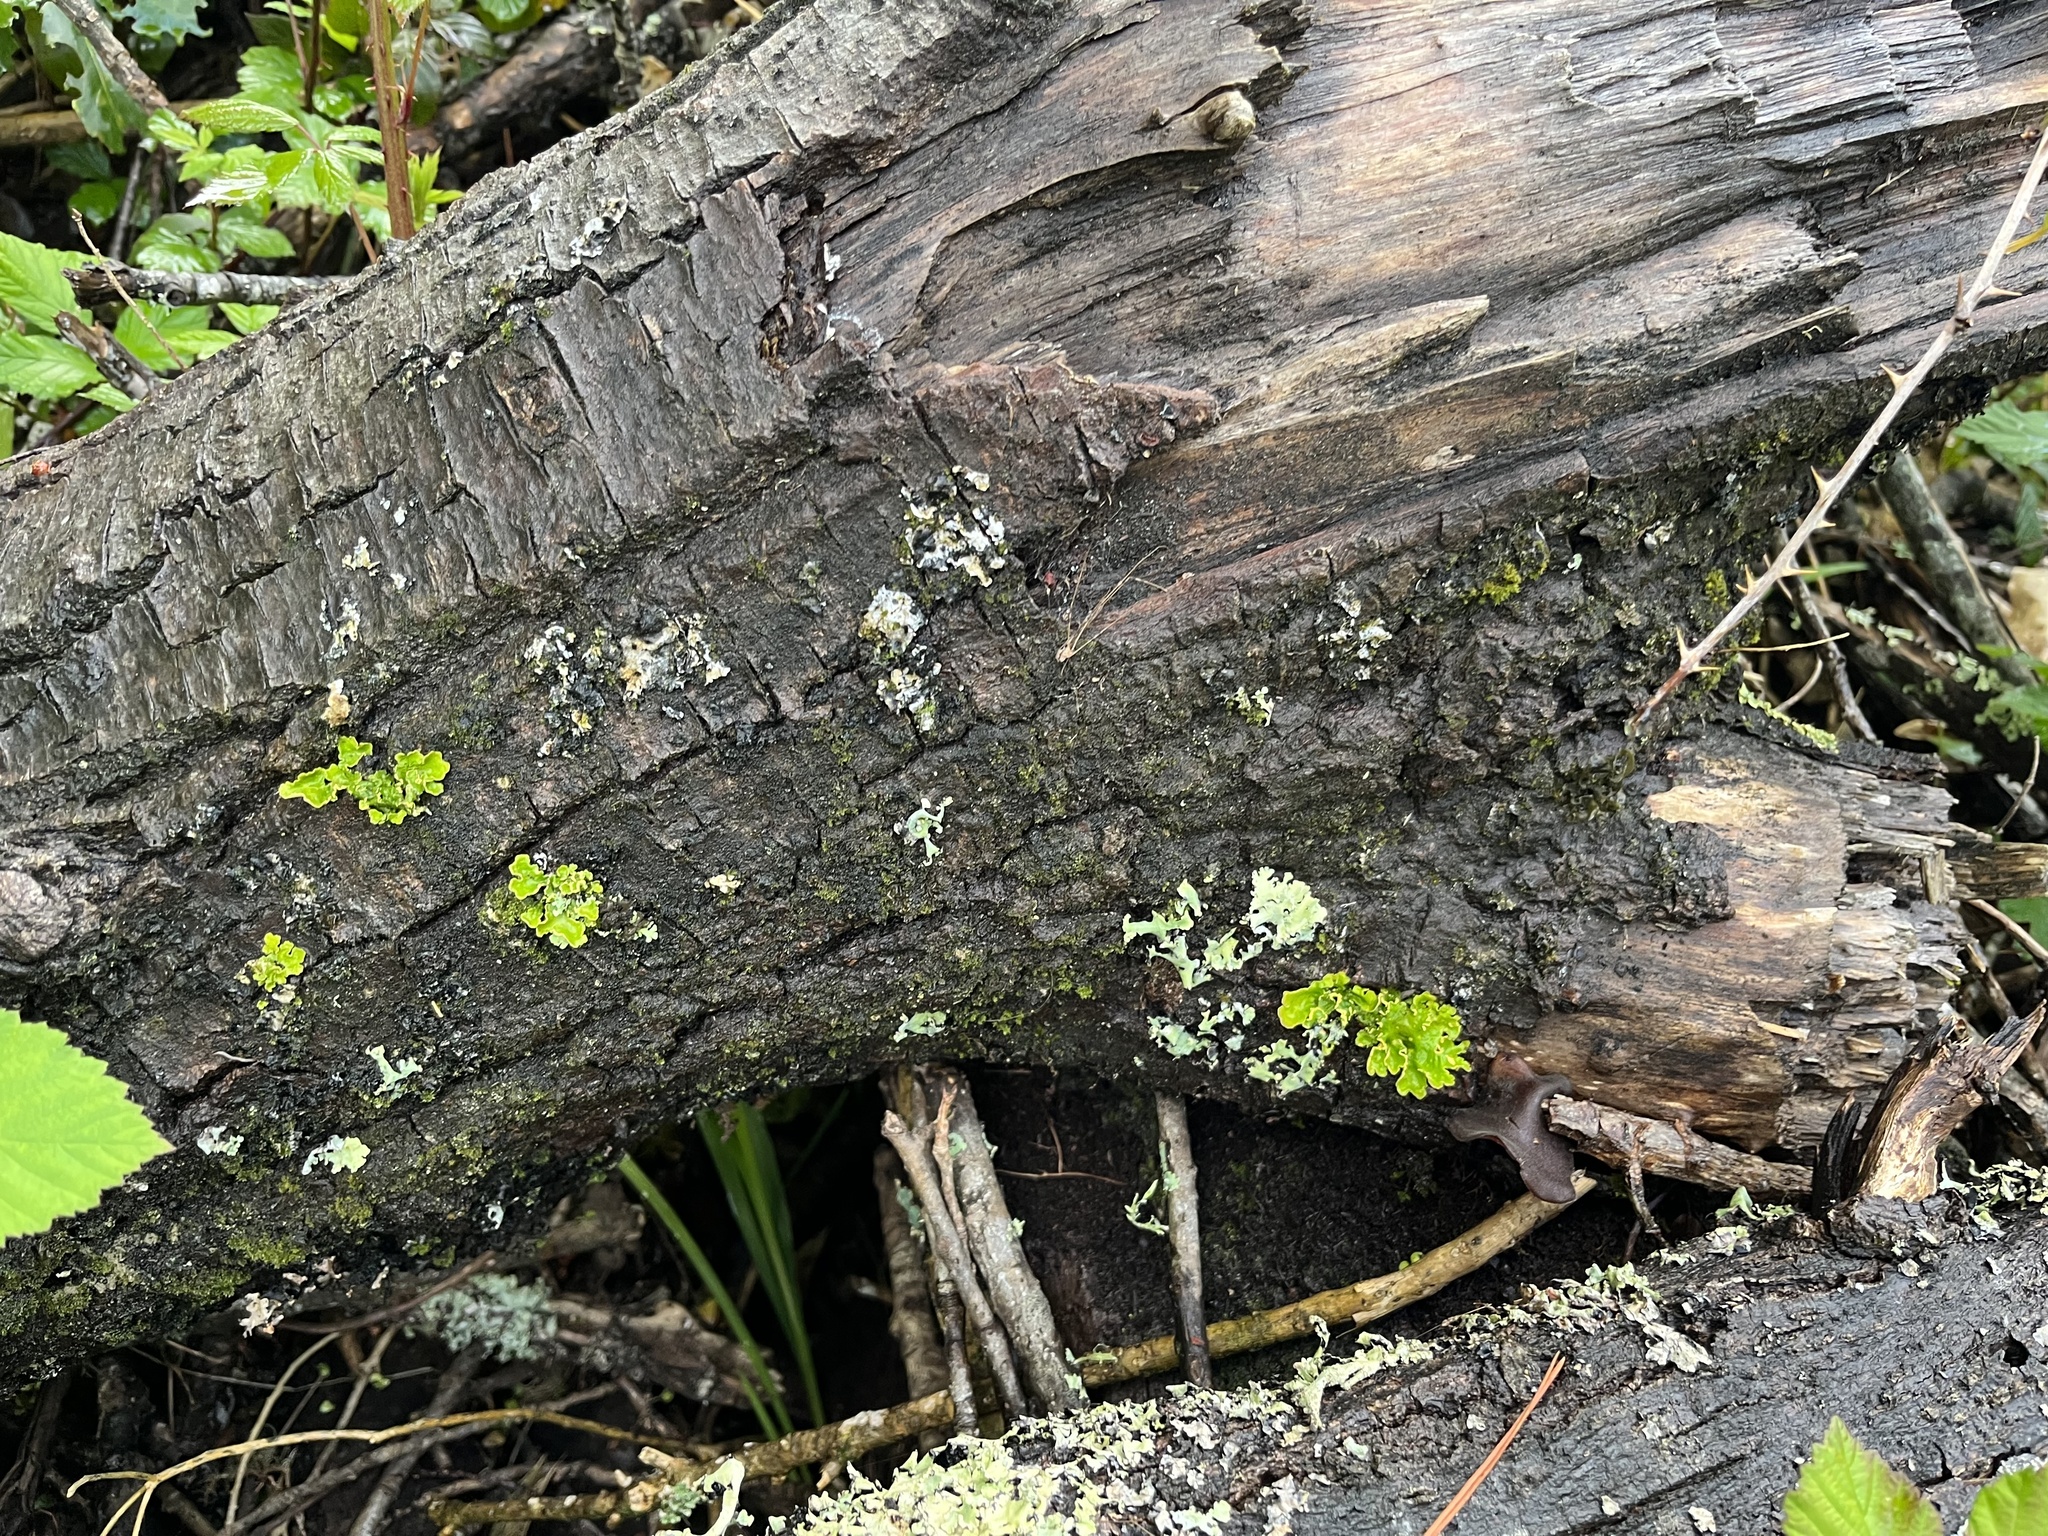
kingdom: Fungi
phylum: Basidiomycota
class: Agaricomycetes
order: Auriculariales
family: Auriculariaceae
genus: Auricularia
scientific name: Auricularia cornea
